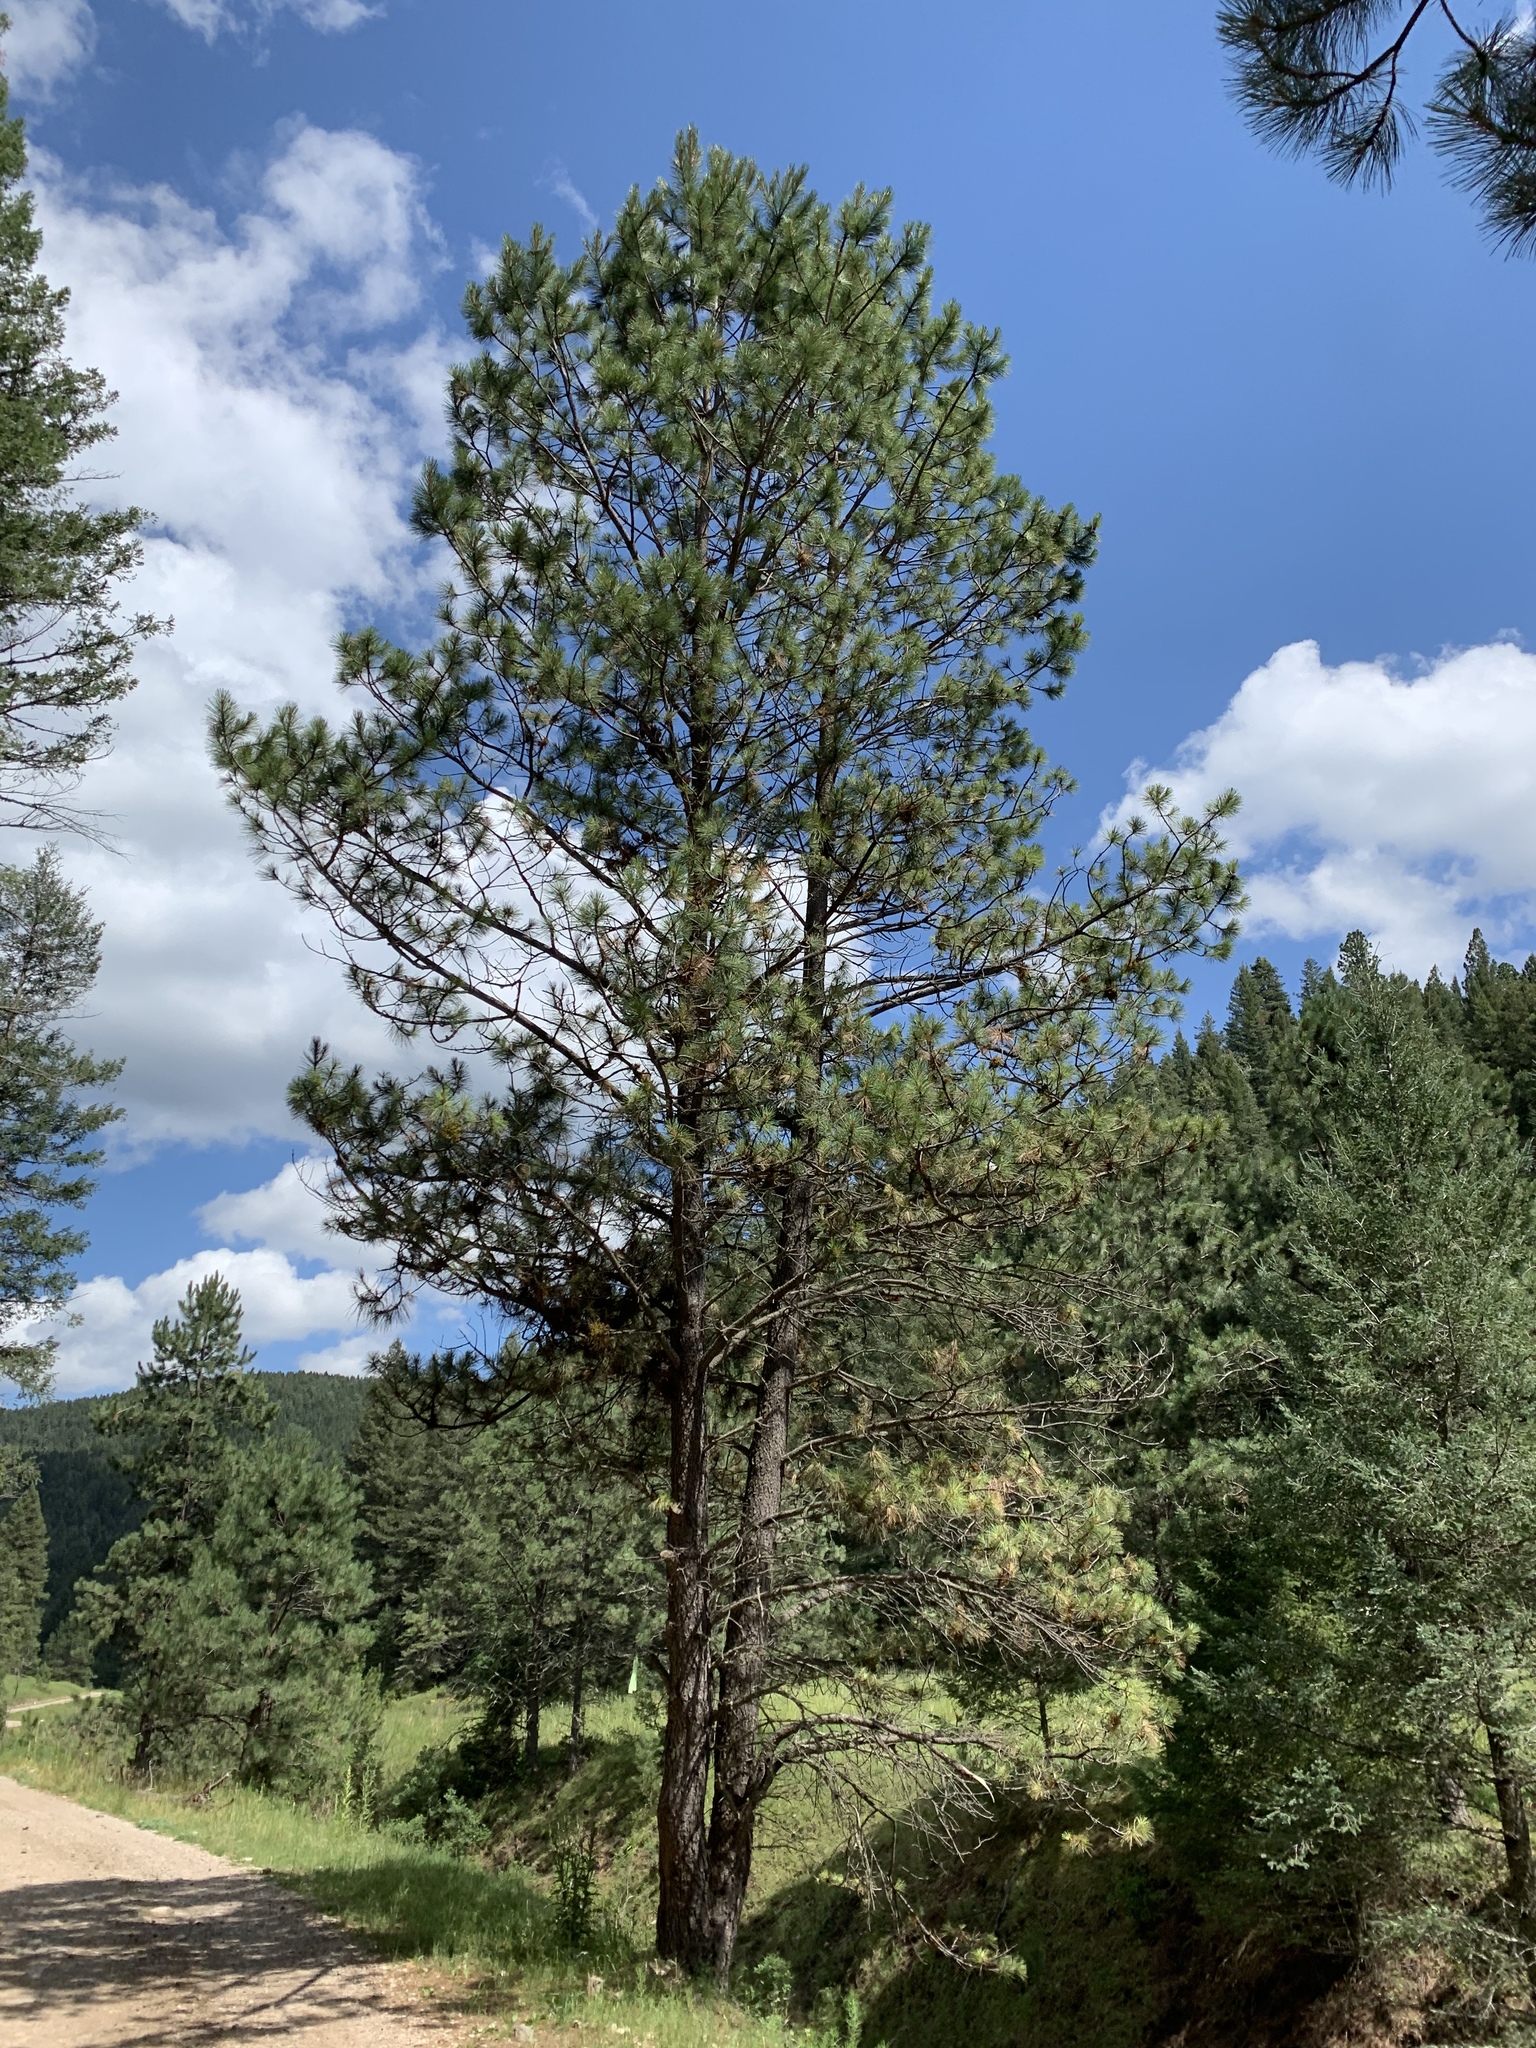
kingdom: Plantae
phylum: Tracheophyta
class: Pinopsida
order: Pinales
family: Pinaceae
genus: Pinus
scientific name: Pinus ponderosa
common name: Western yellow-pine
